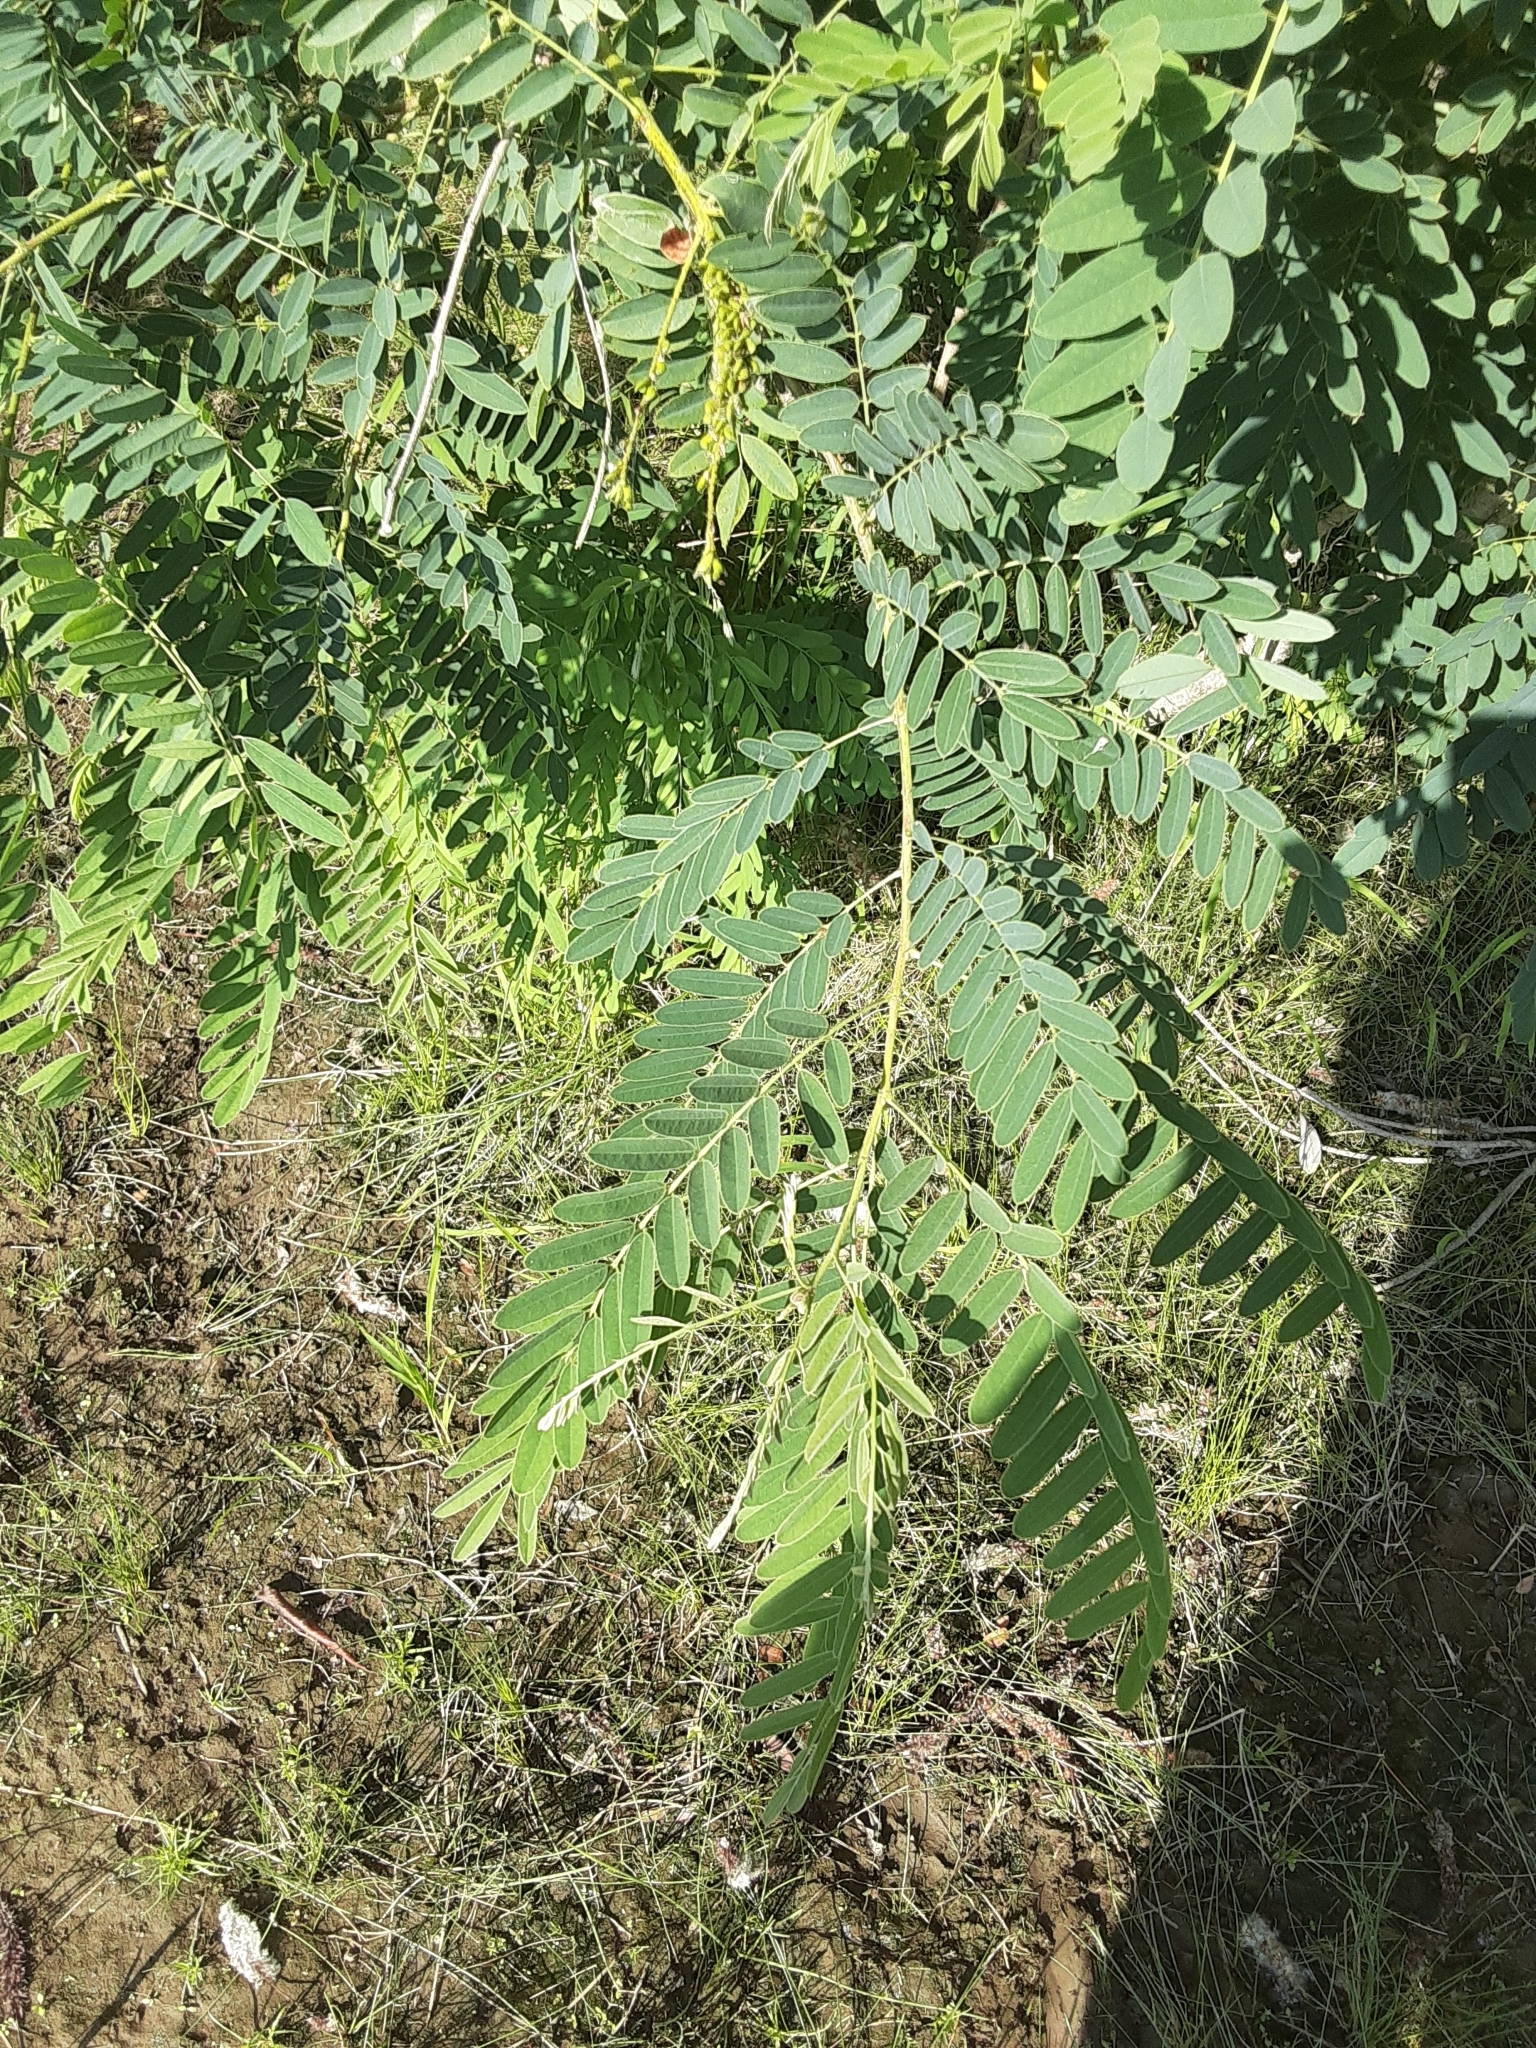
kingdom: Plantae
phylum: Tracheophyta
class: Magnoliopsida
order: Fabales
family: Fabaceae
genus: Amorpha
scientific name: Amorpha fruticosa
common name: False indigo
